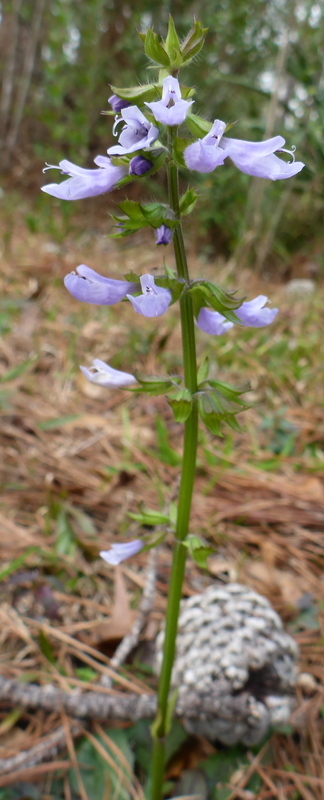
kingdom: Plantae
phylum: Tracheophyta
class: Magnoliopsida
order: Lamiales
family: Lamiaceae
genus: Salvia
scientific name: Salvia lyrata
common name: Cancerweed
